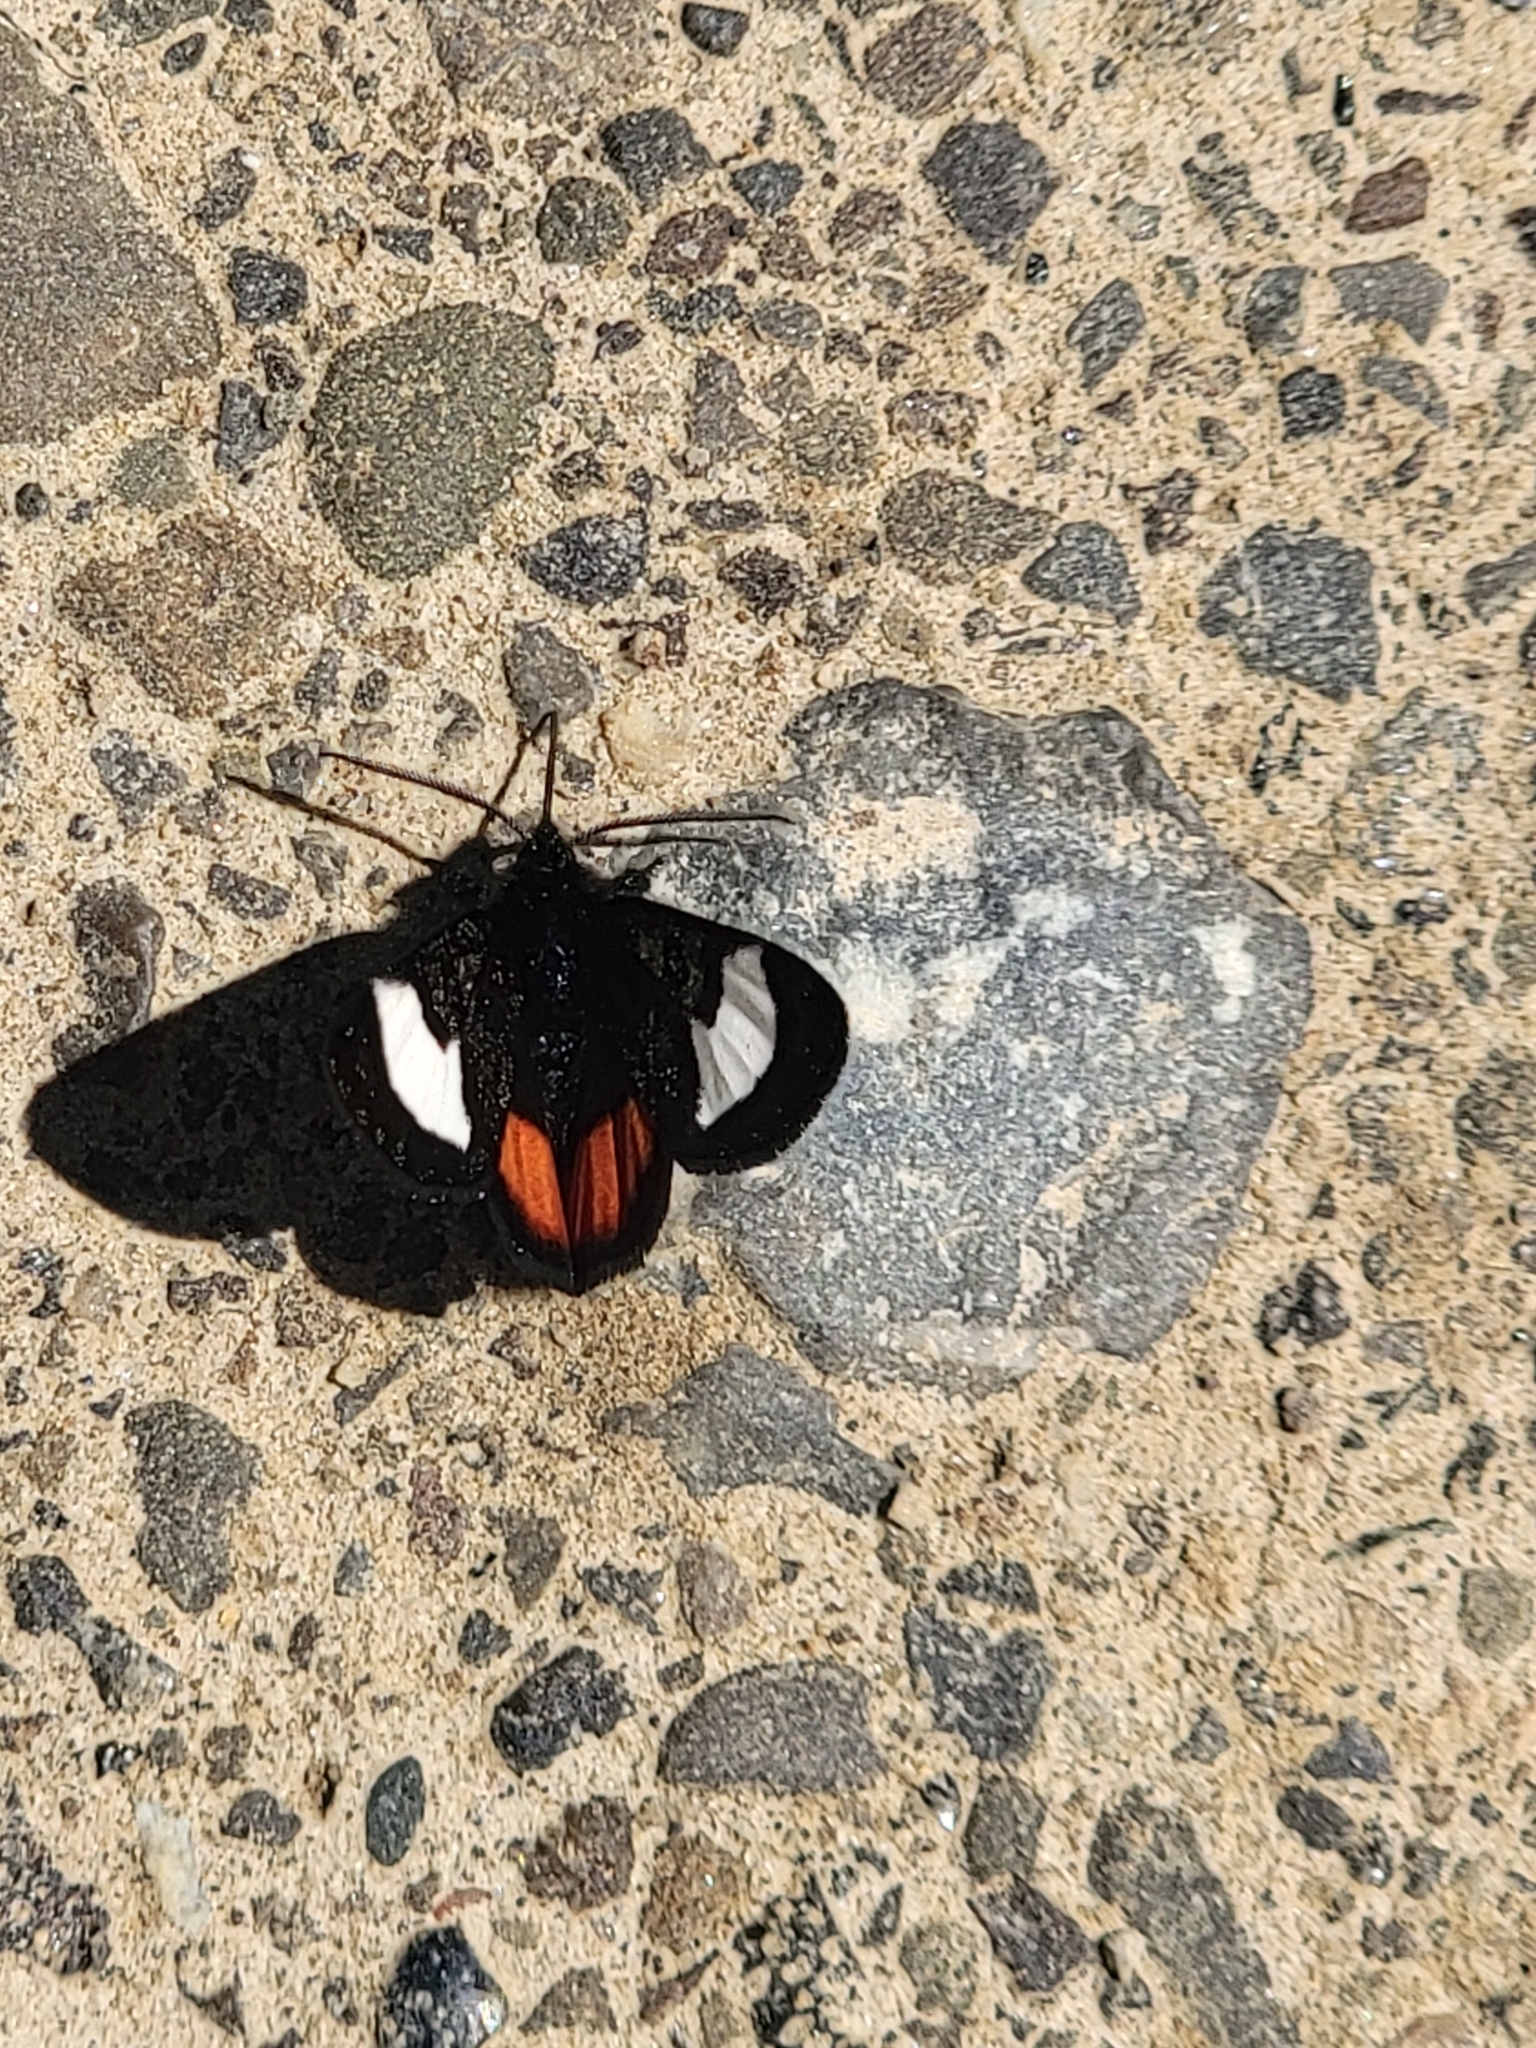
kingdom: Animalia
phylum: Arthropoda
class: Insecta
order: Lepidoptera
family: Noctuidae
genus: Psychomorpha
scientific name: Psychomorpha epimenis
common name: Grapevine epimenis moth
